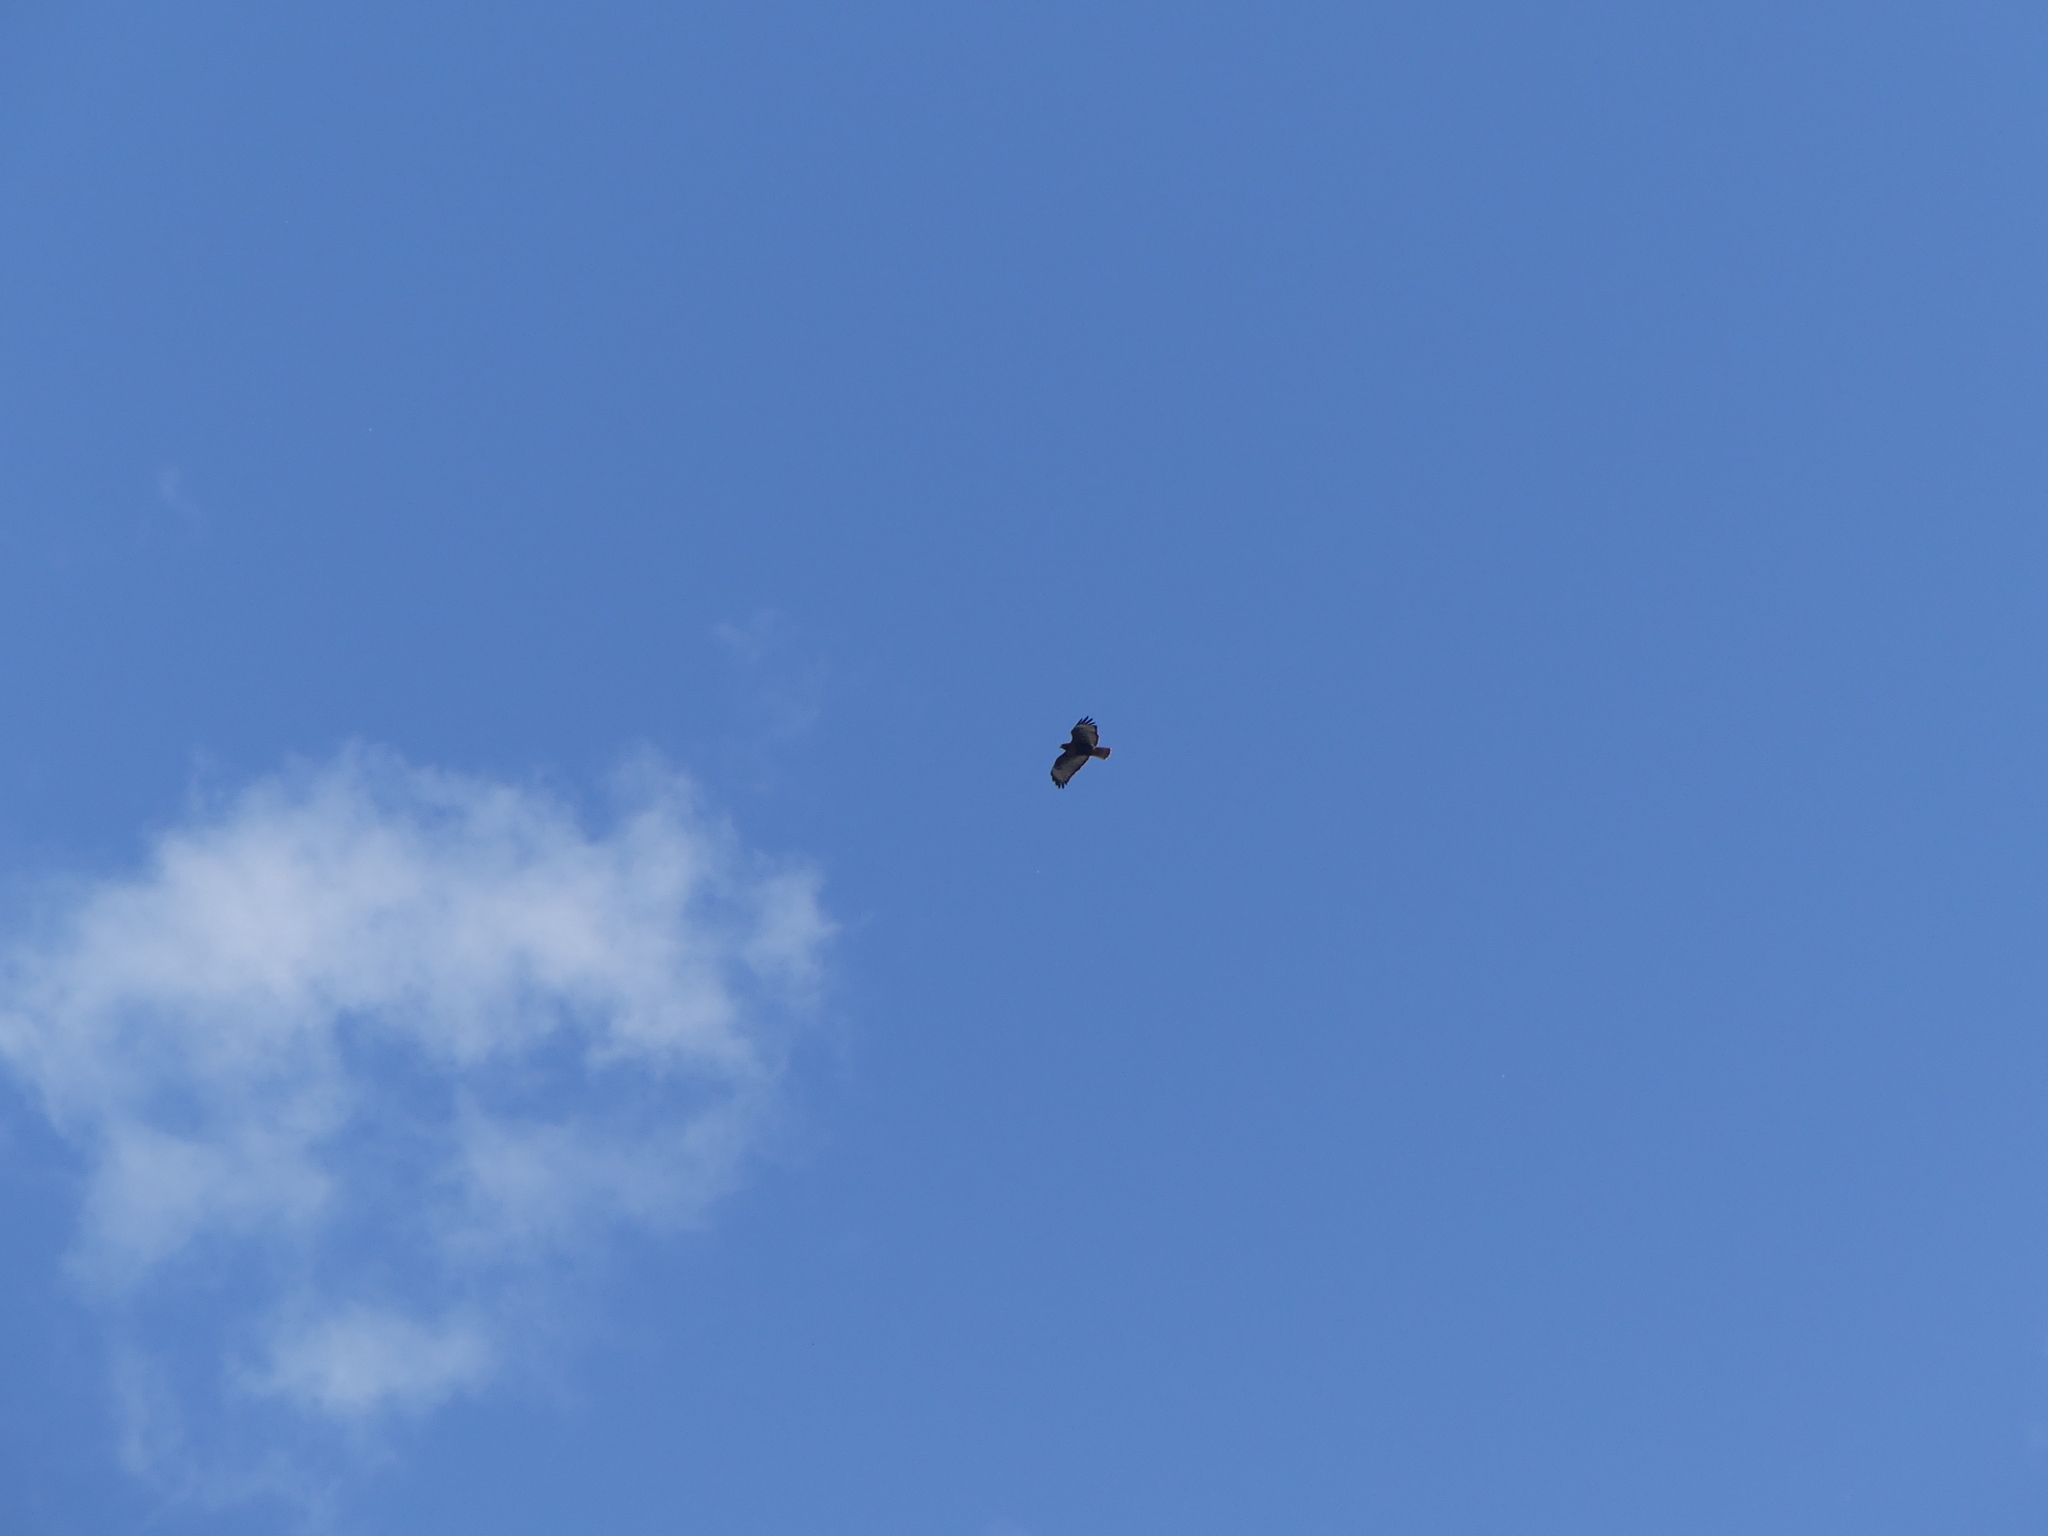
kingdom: Animalia
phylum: Chordata
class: Aves
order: Accipitriformes
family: Accipitridae
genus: Buteo
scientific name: Buteo jamaicensis
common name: Red-tailed hawk
